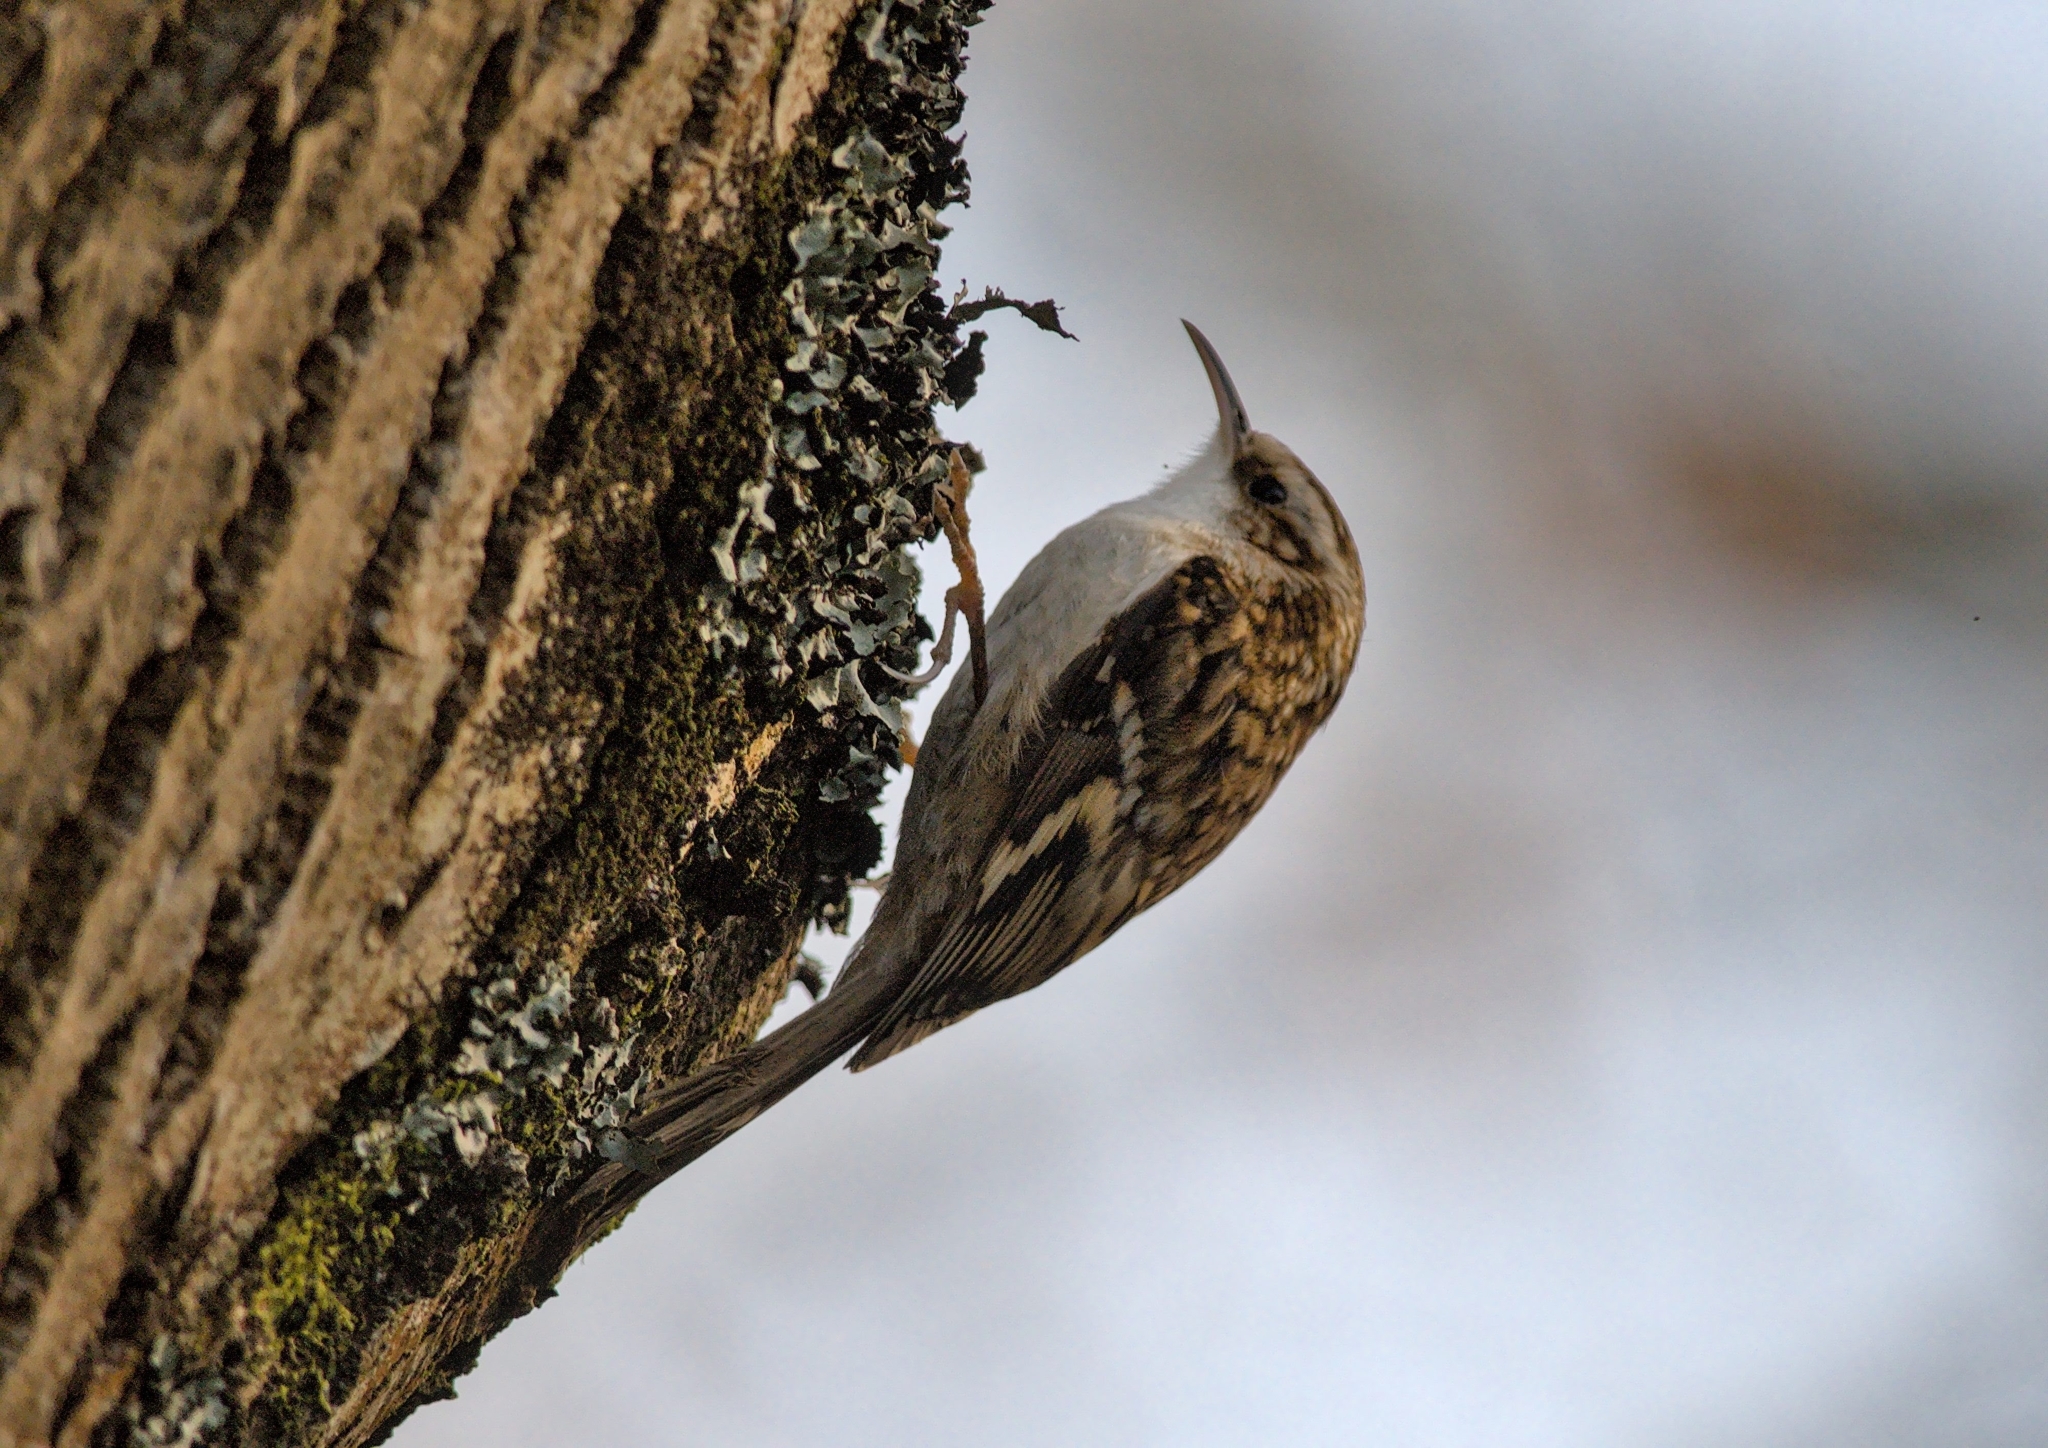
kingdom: Animalia
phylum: Chordata
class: Aves
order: Passeriformes
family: Certhiidae
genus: Certhia
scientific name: Certhia familiaris
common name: Eurasian treecreeper
